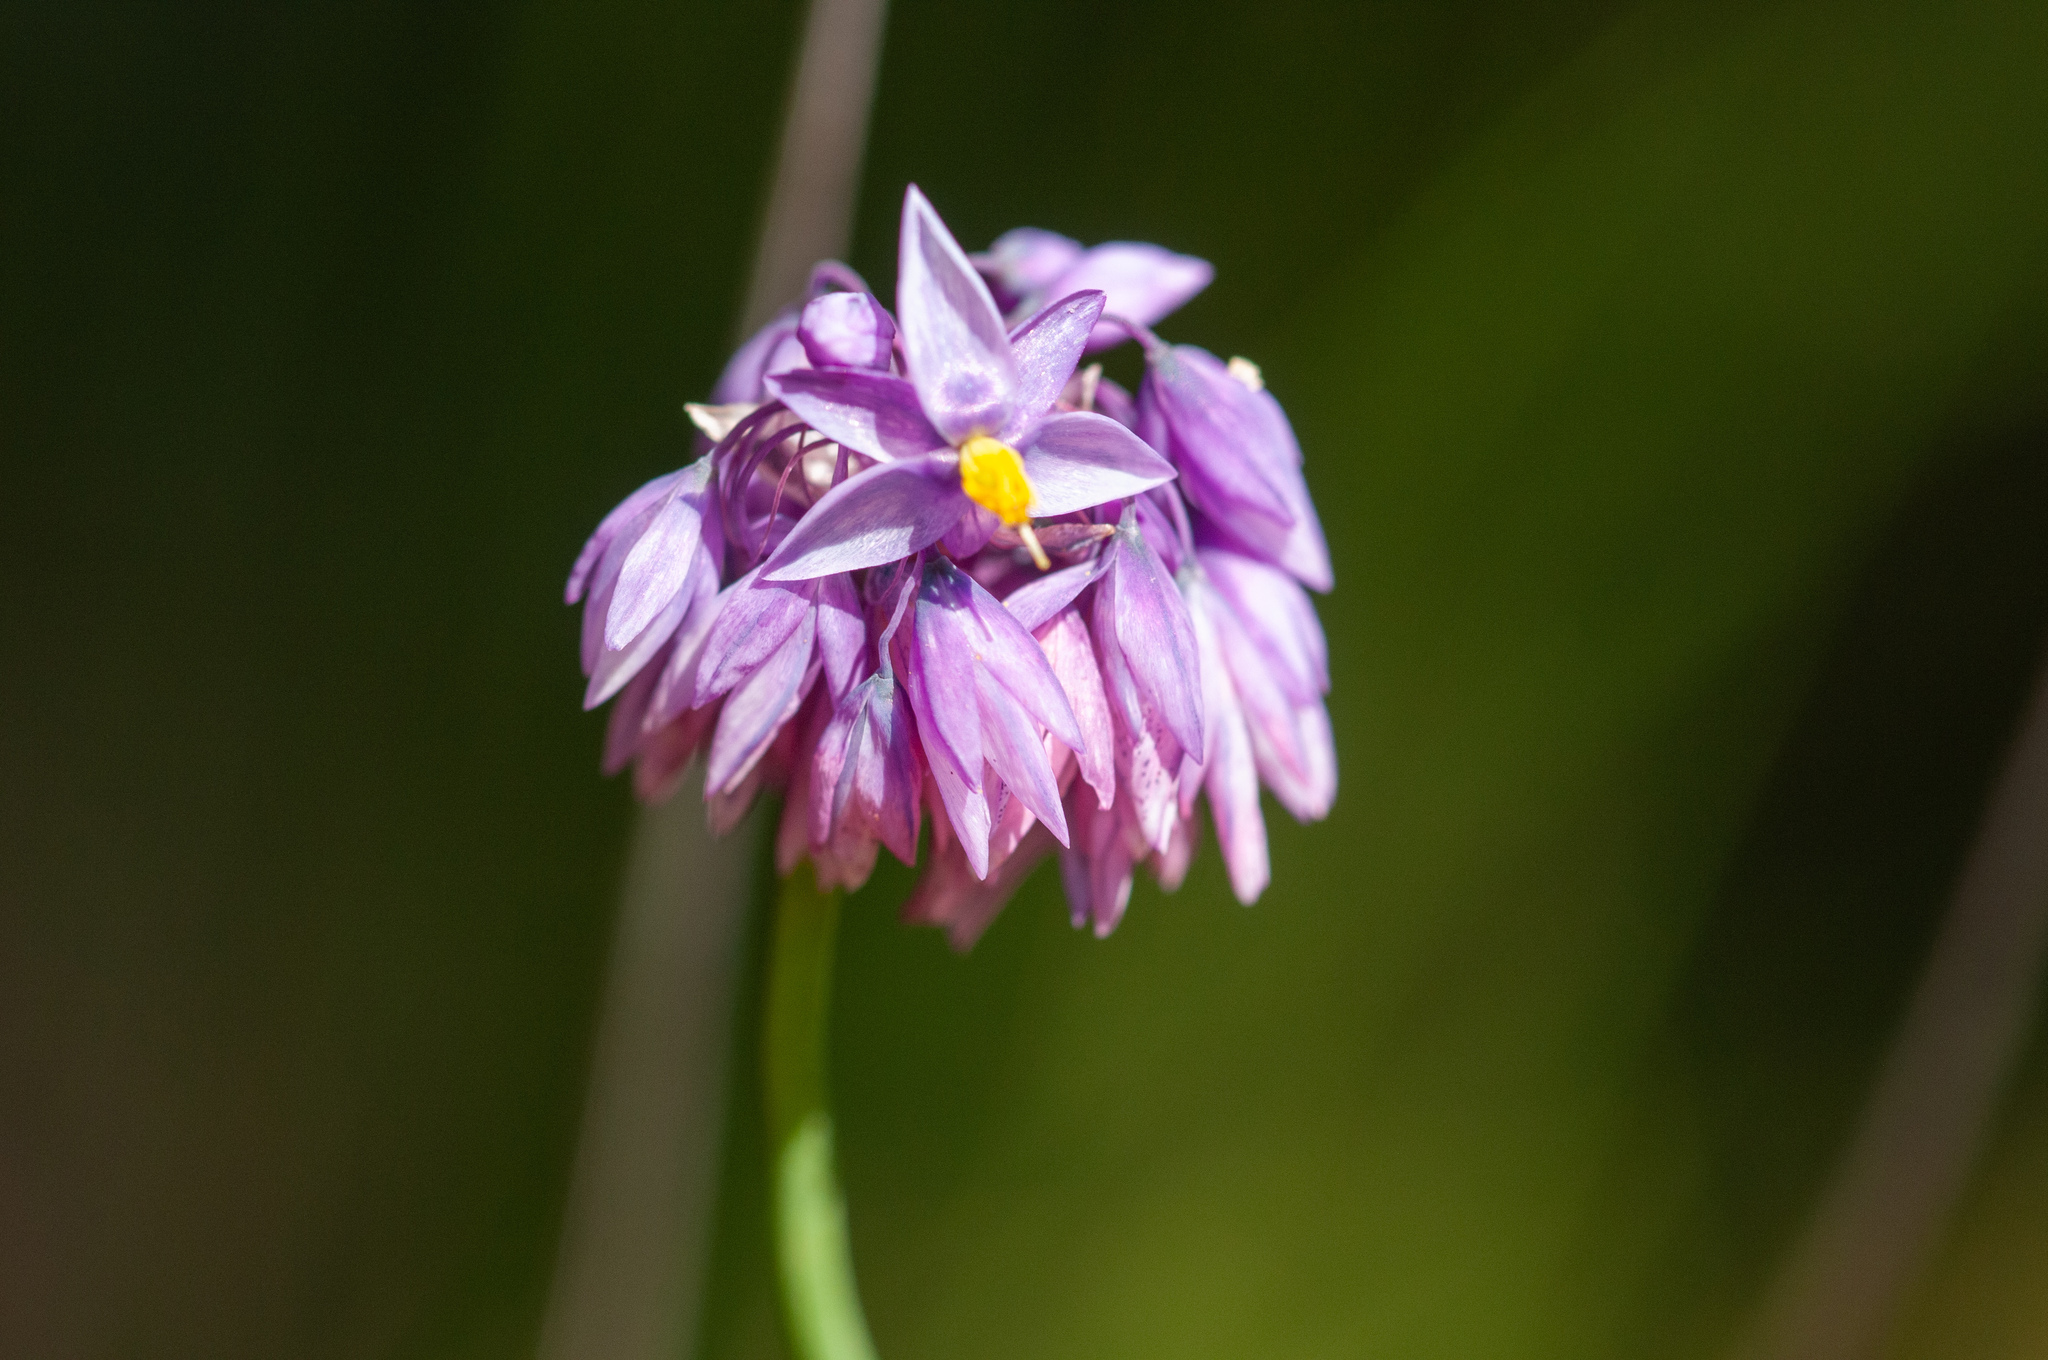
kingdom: Plantae
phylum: Tracheophyta
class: Liliopsida
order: Asparagales
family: Asparagaceae
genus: Sowerbaea
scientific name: Sowerbaea juncea
